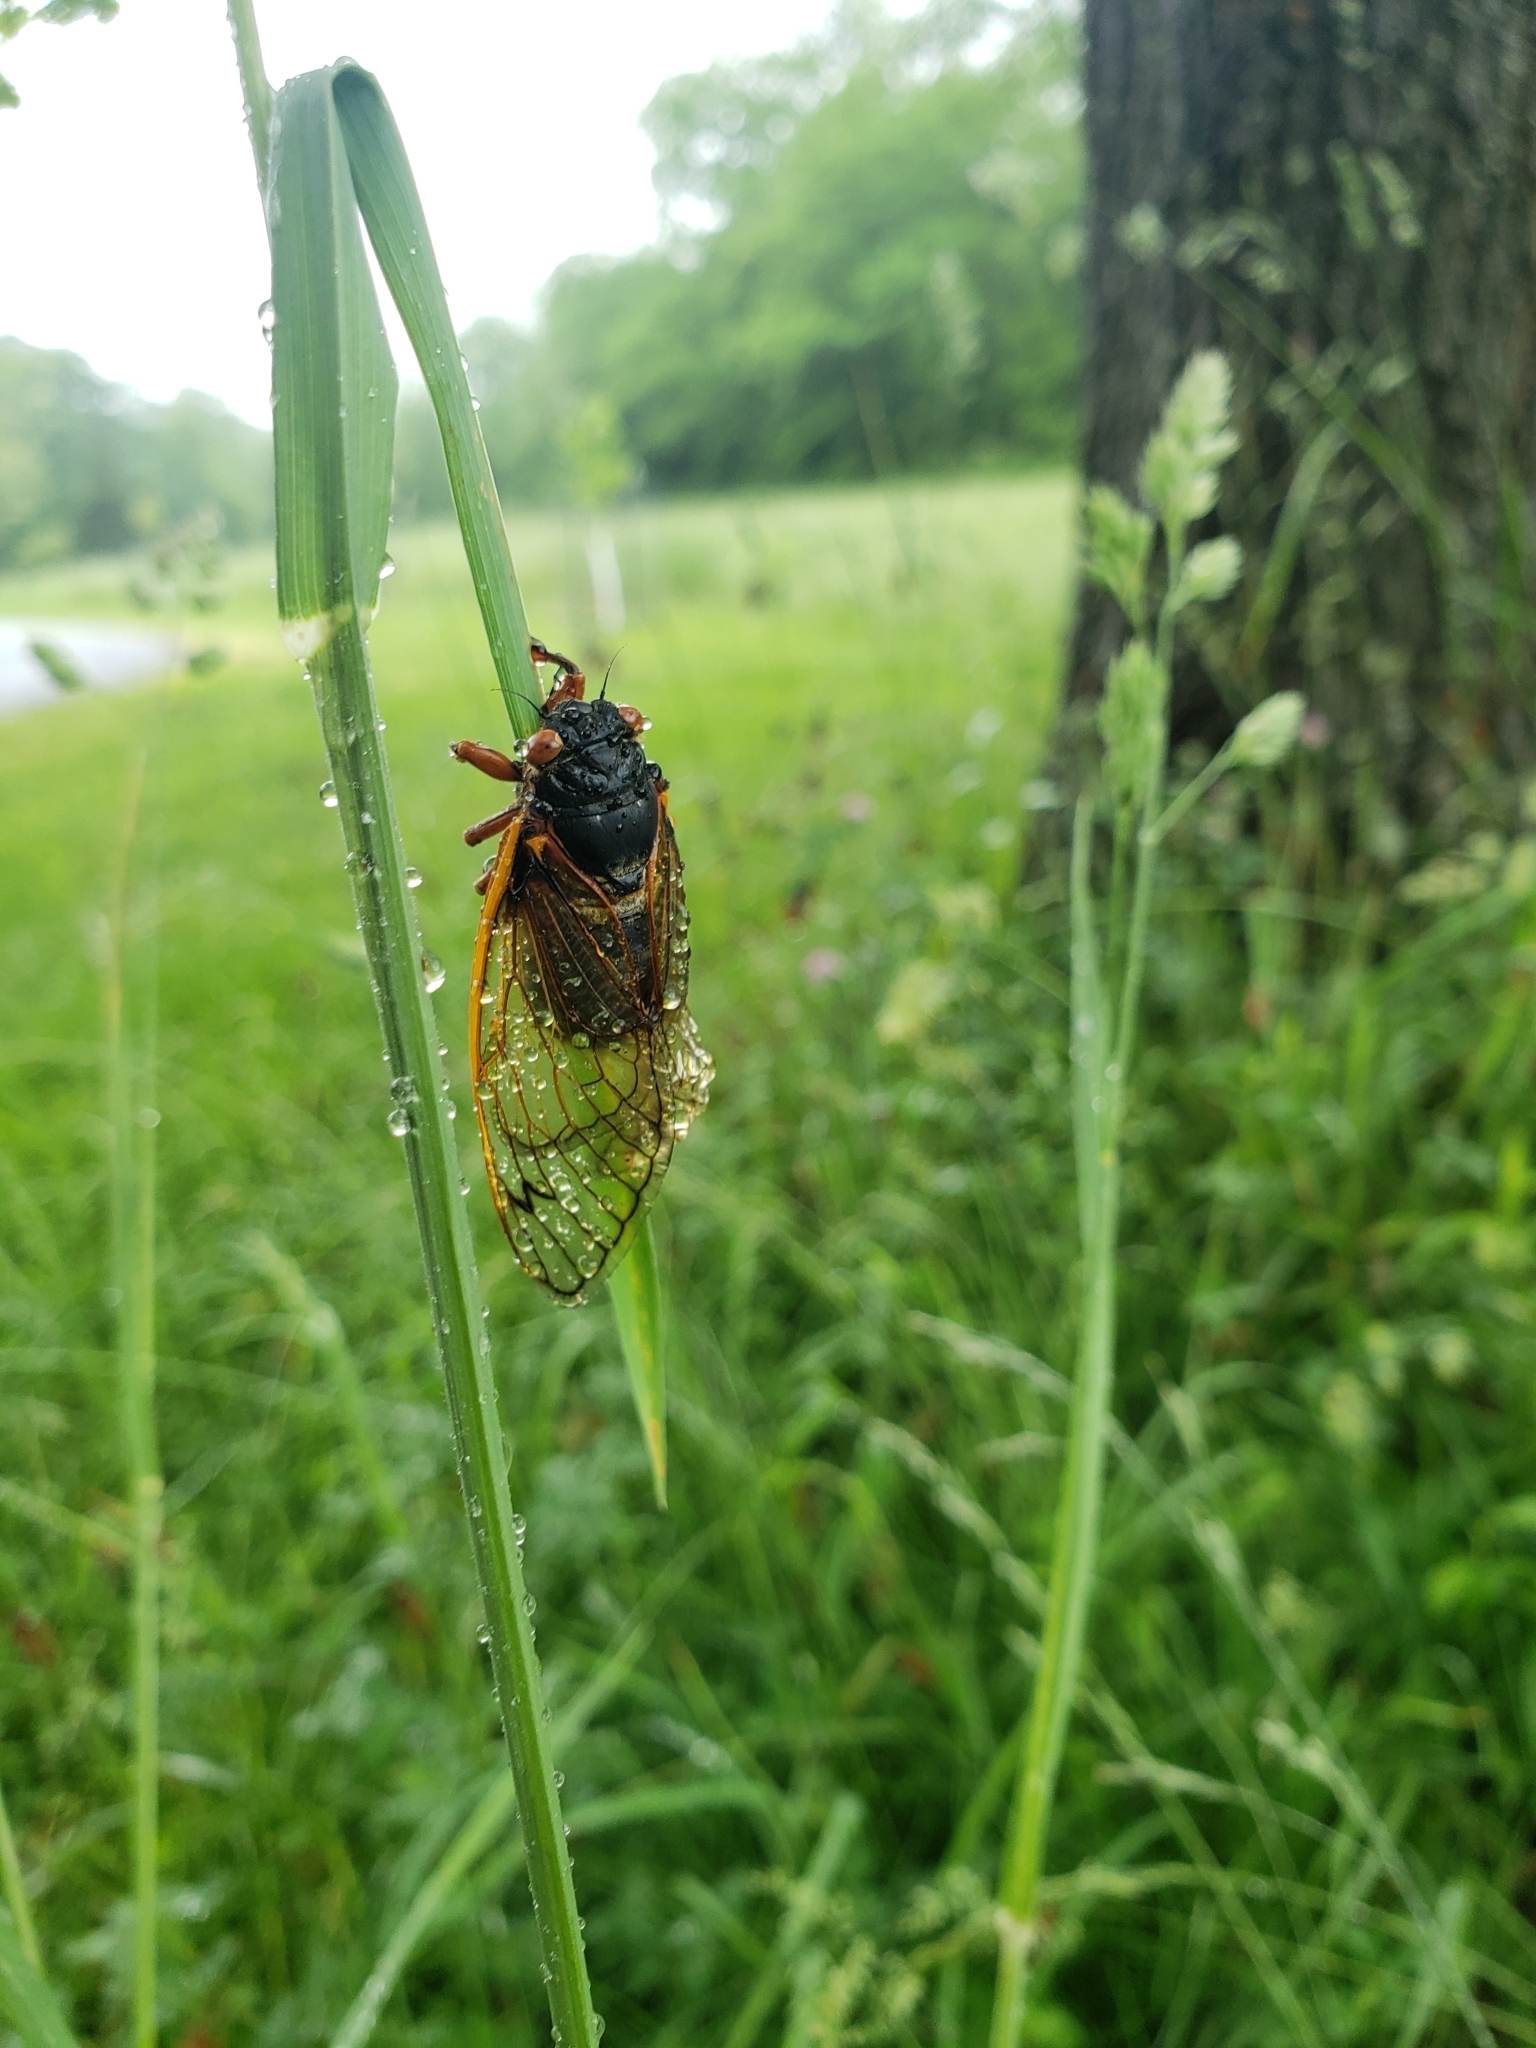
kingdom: Animalia
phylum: Arthropoda
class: Insecta
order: Hemiptera
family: Cicadidae
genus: Magicicada
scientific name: Magicicada septendecim
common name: Periodical cicada
